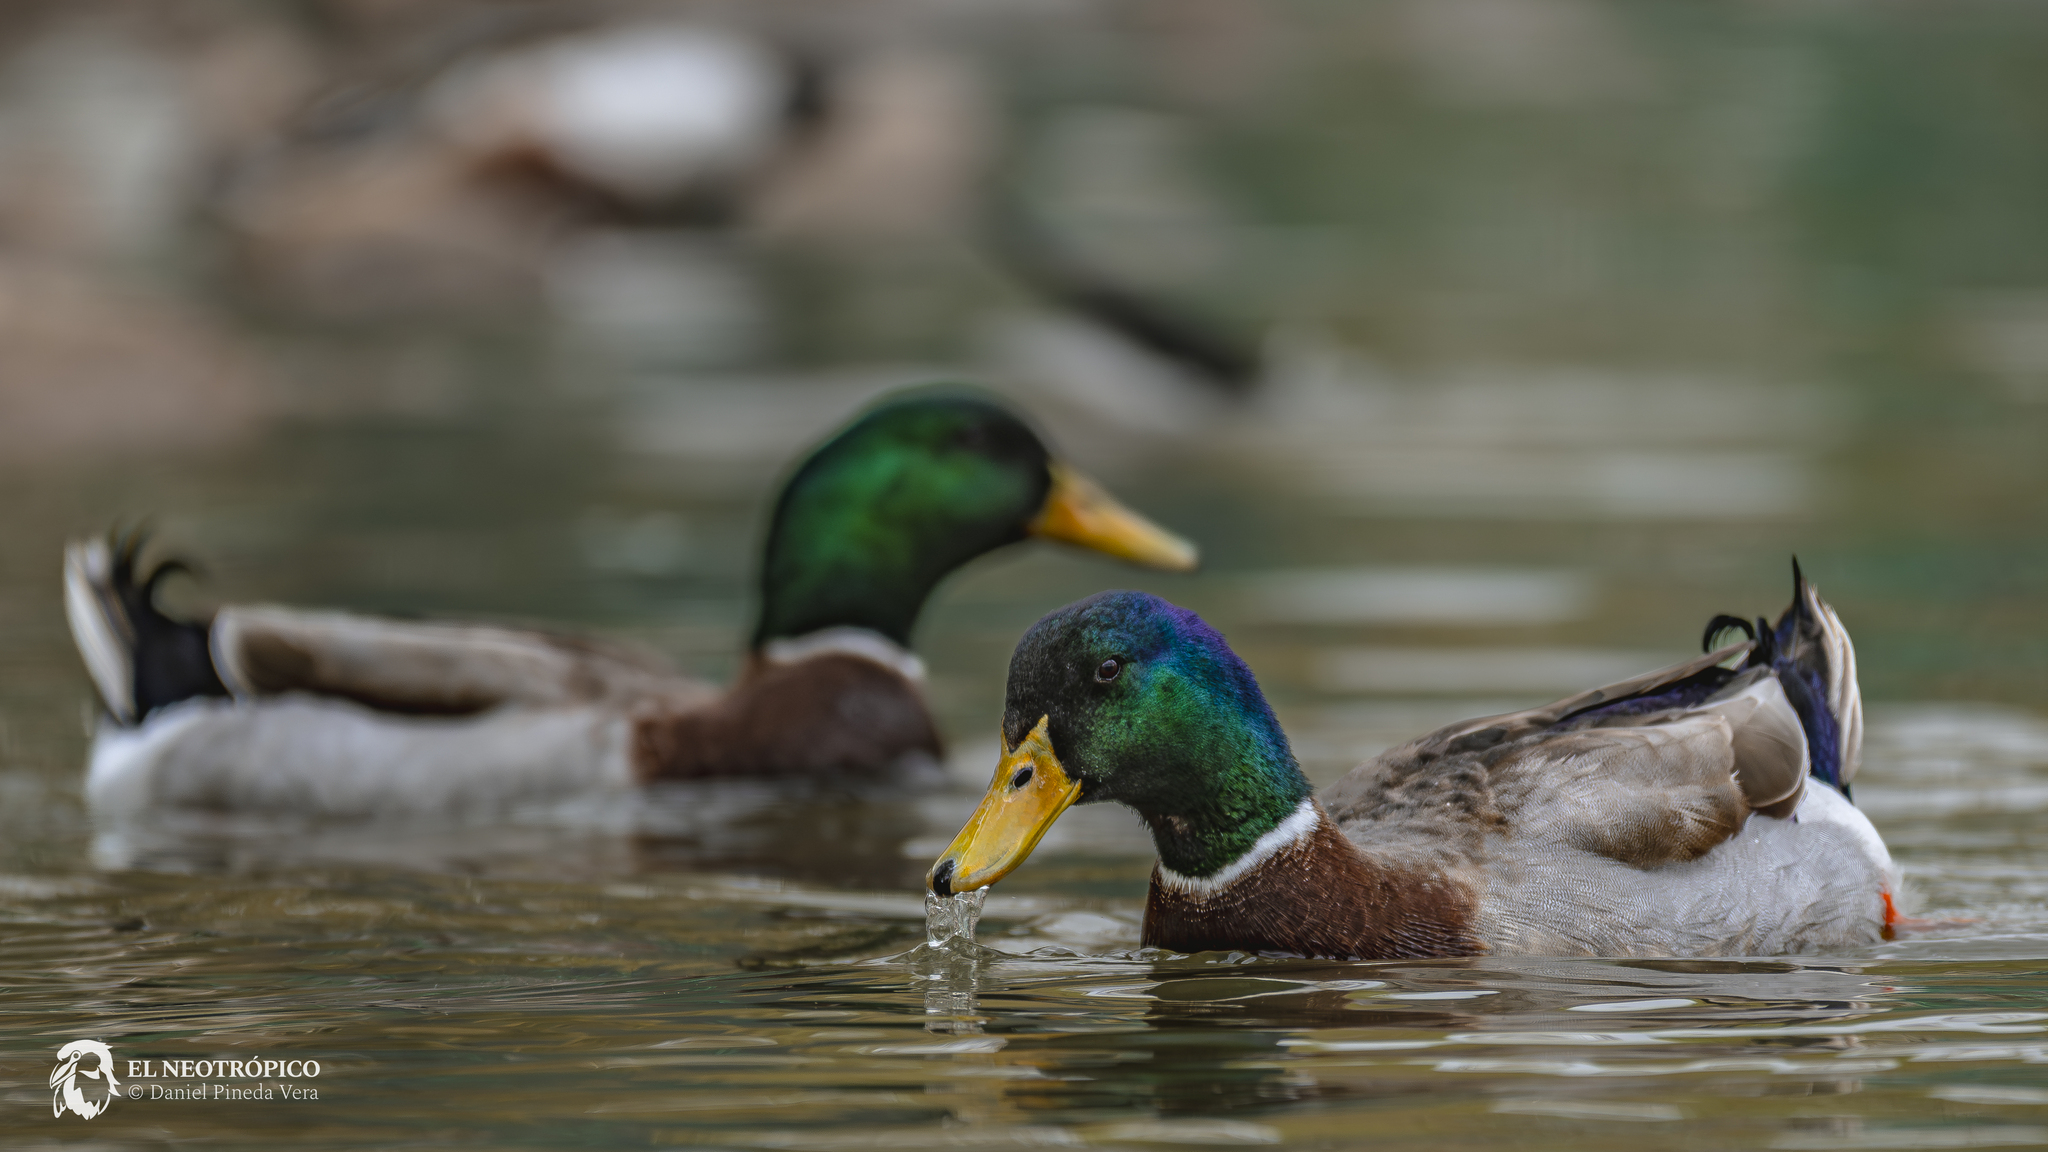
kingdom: Animalia
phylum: Chordata
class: Aves
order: Anseriformes
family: Anatidae
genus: Anas
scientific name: Anas platyrhynchos
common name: Mallard
